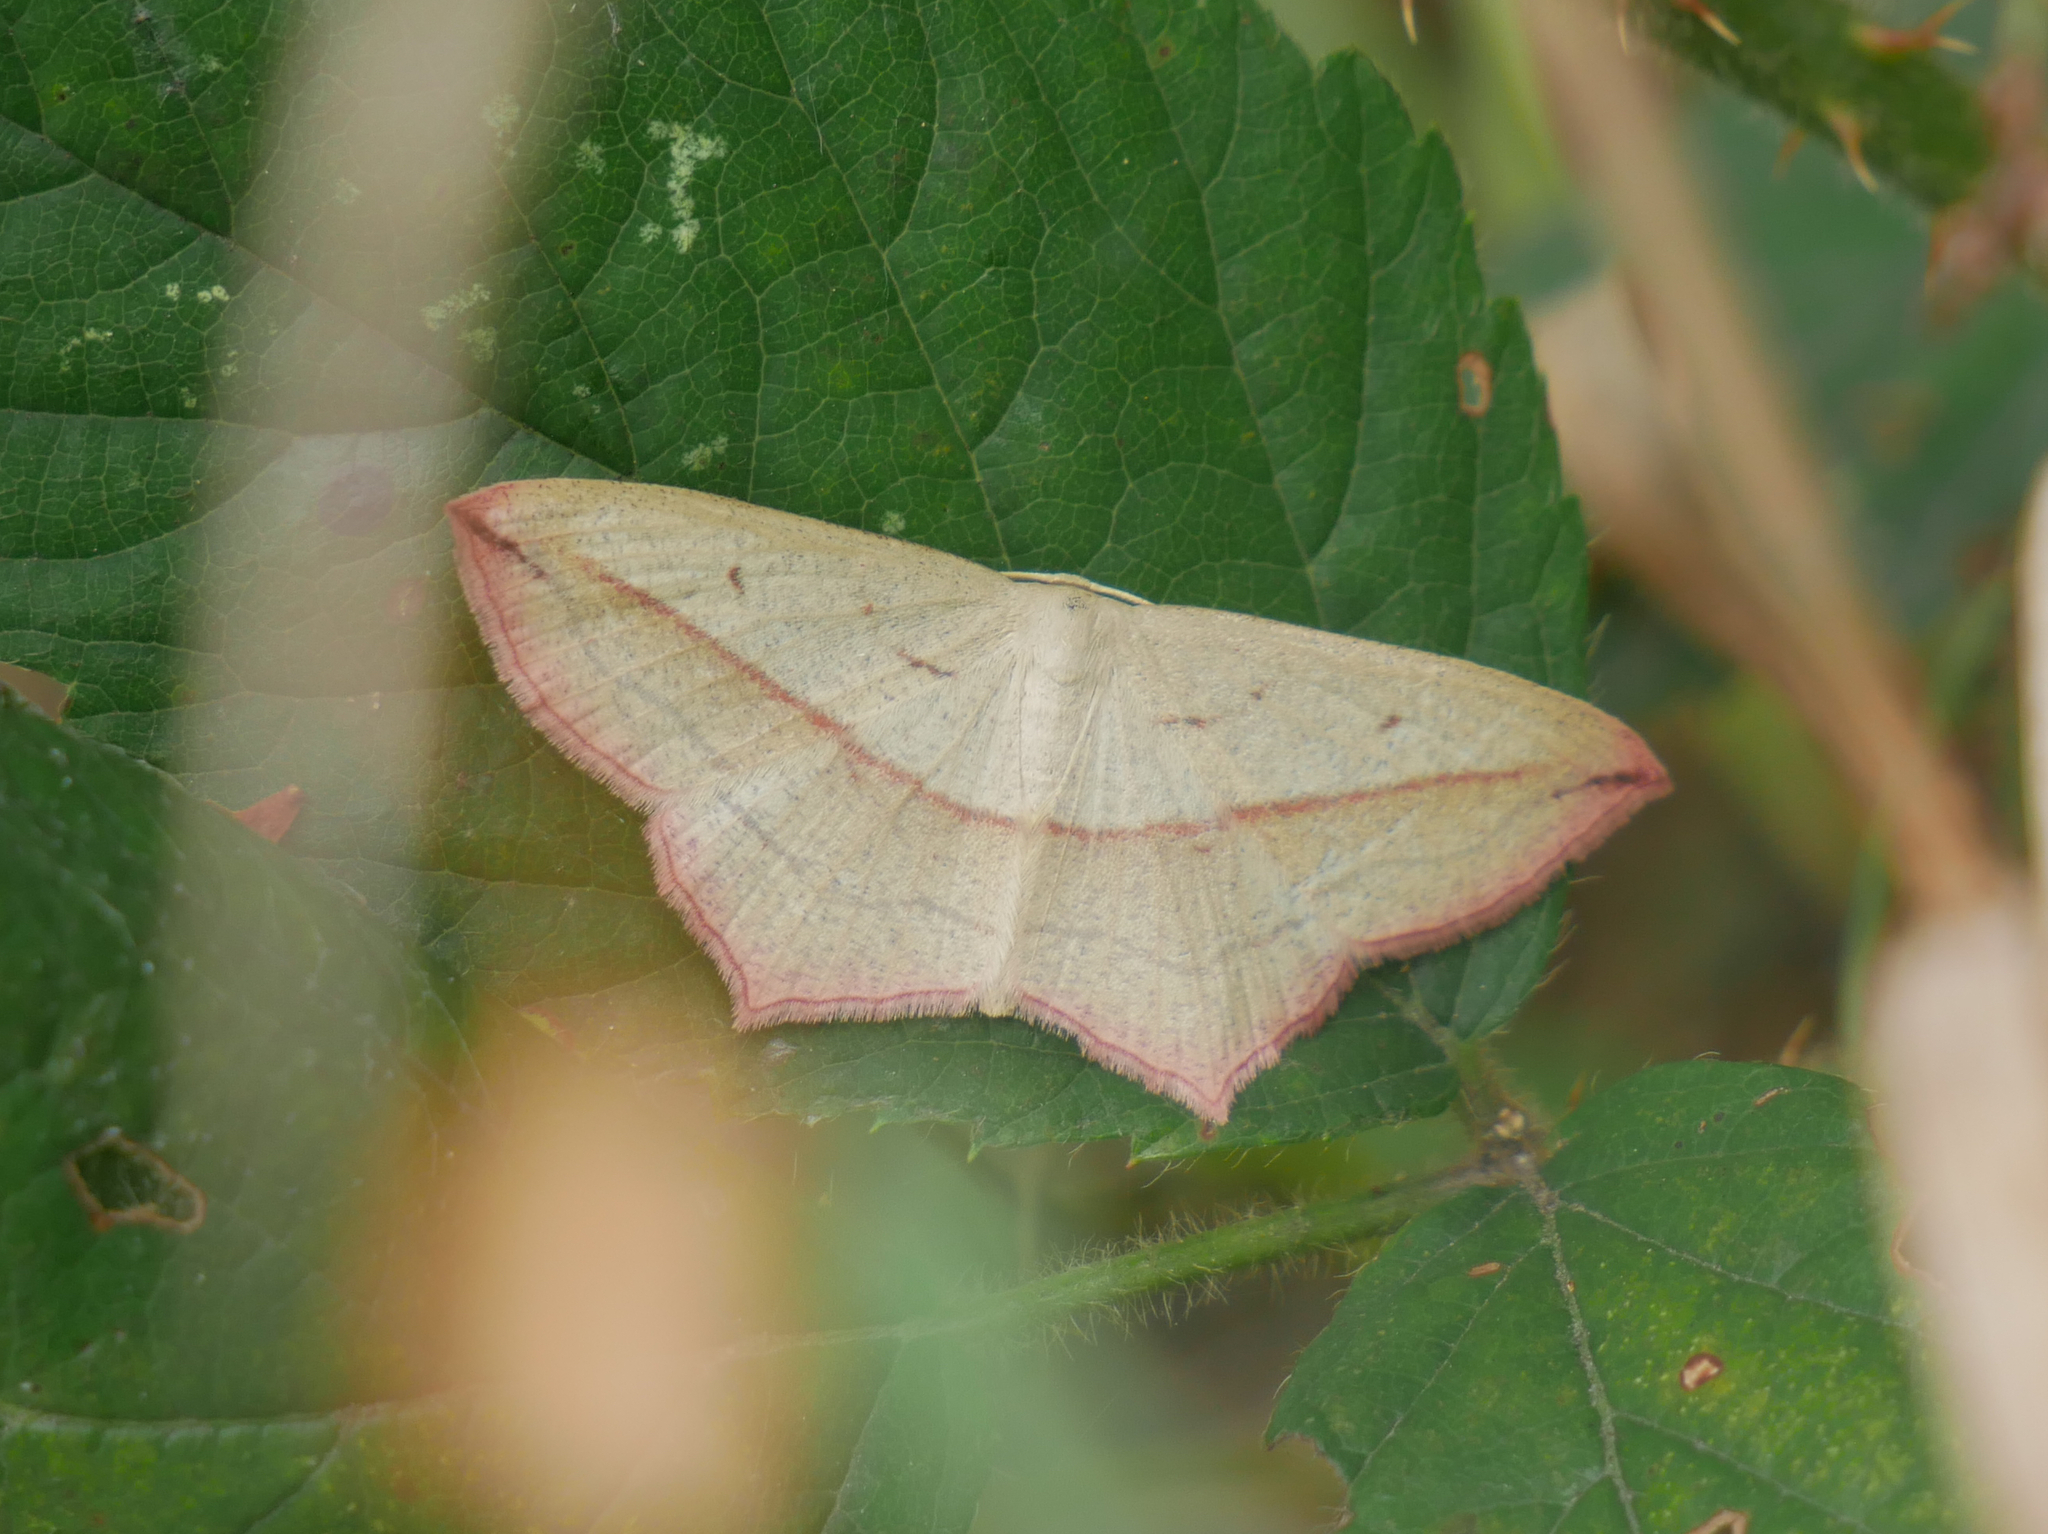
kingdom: Animalia
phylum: Arthropoda
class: Insecta
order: Lepidoptera
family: Geometridae
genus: Timandra
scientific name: Timandra comae
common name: Blood-vein
